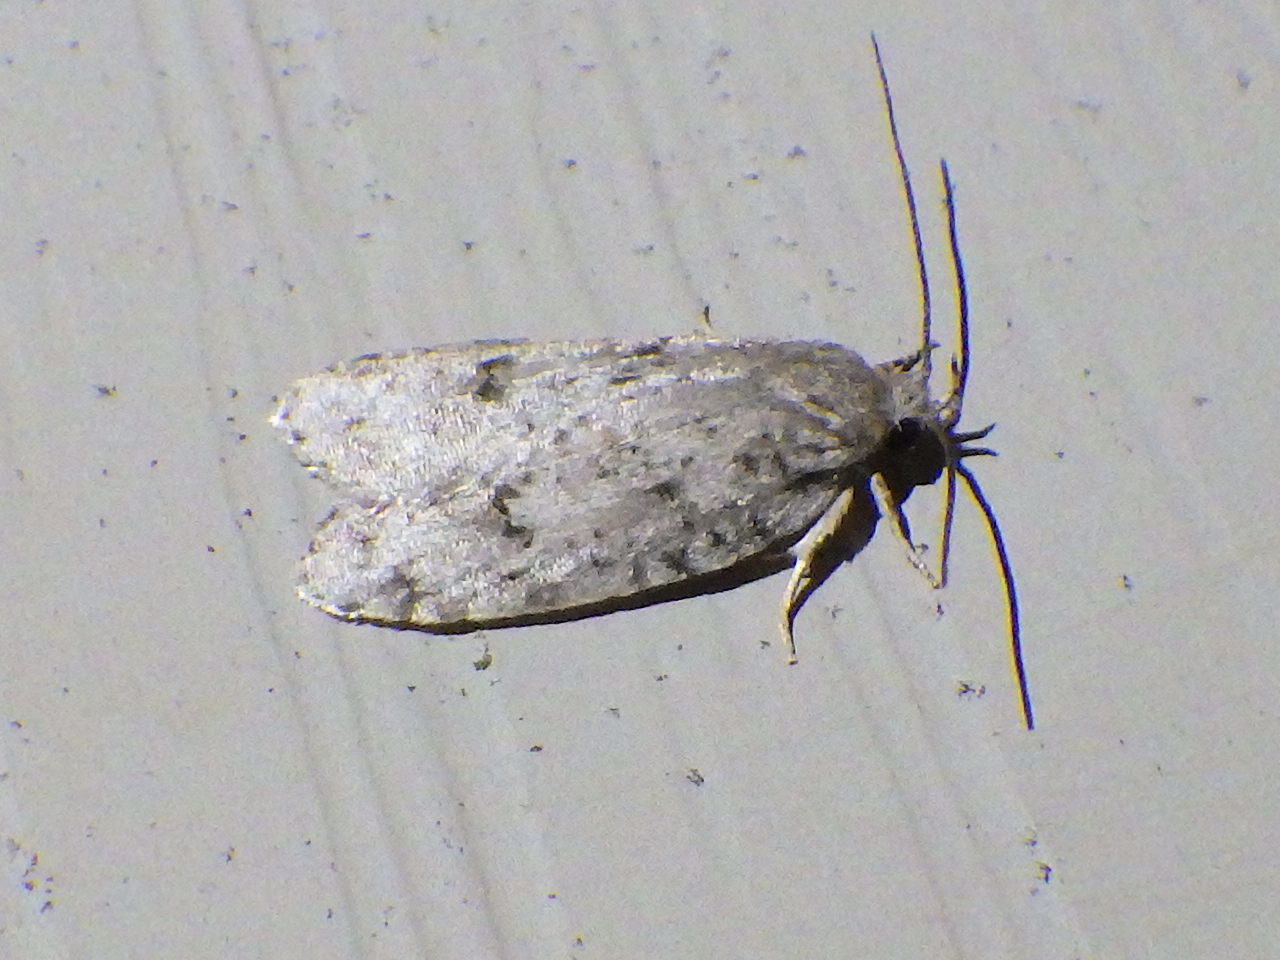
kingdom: Animalia
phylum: Arthropoda
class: Insecta
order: Lepidoptera
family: Depressariidae
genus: Bibarrambla
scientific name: Bibarrambla allenella
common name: Bog bibarrambla moth
